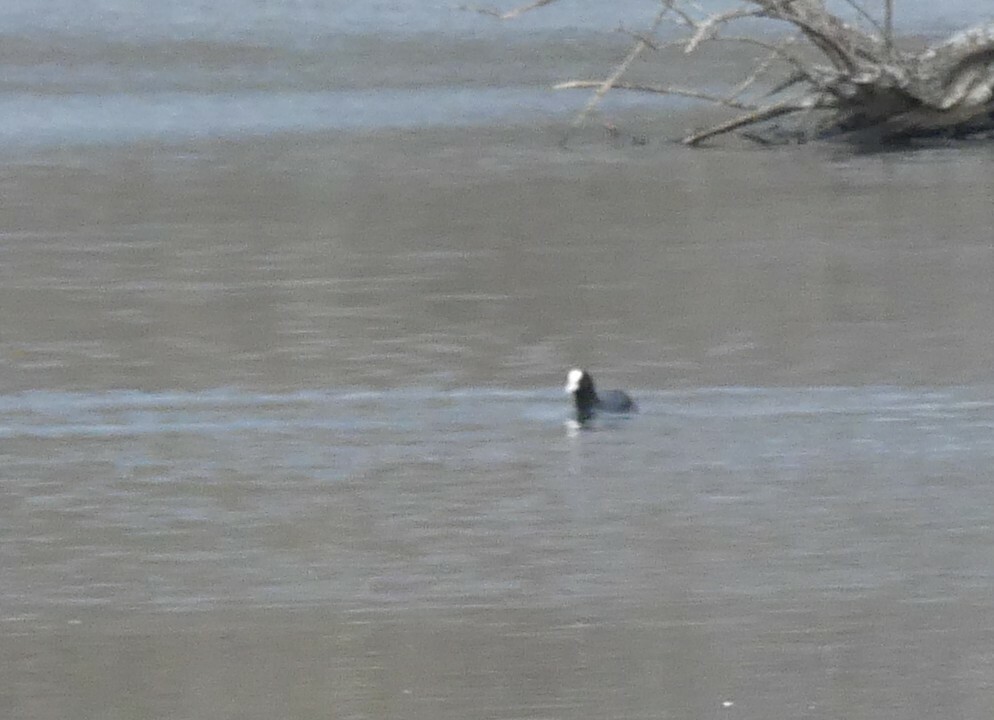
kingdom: Animalia
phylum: Chordata
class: Aves
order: Gruiformes
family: Rallidae
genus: Fulica
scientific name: Fulica atra
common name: Eurasian coot
